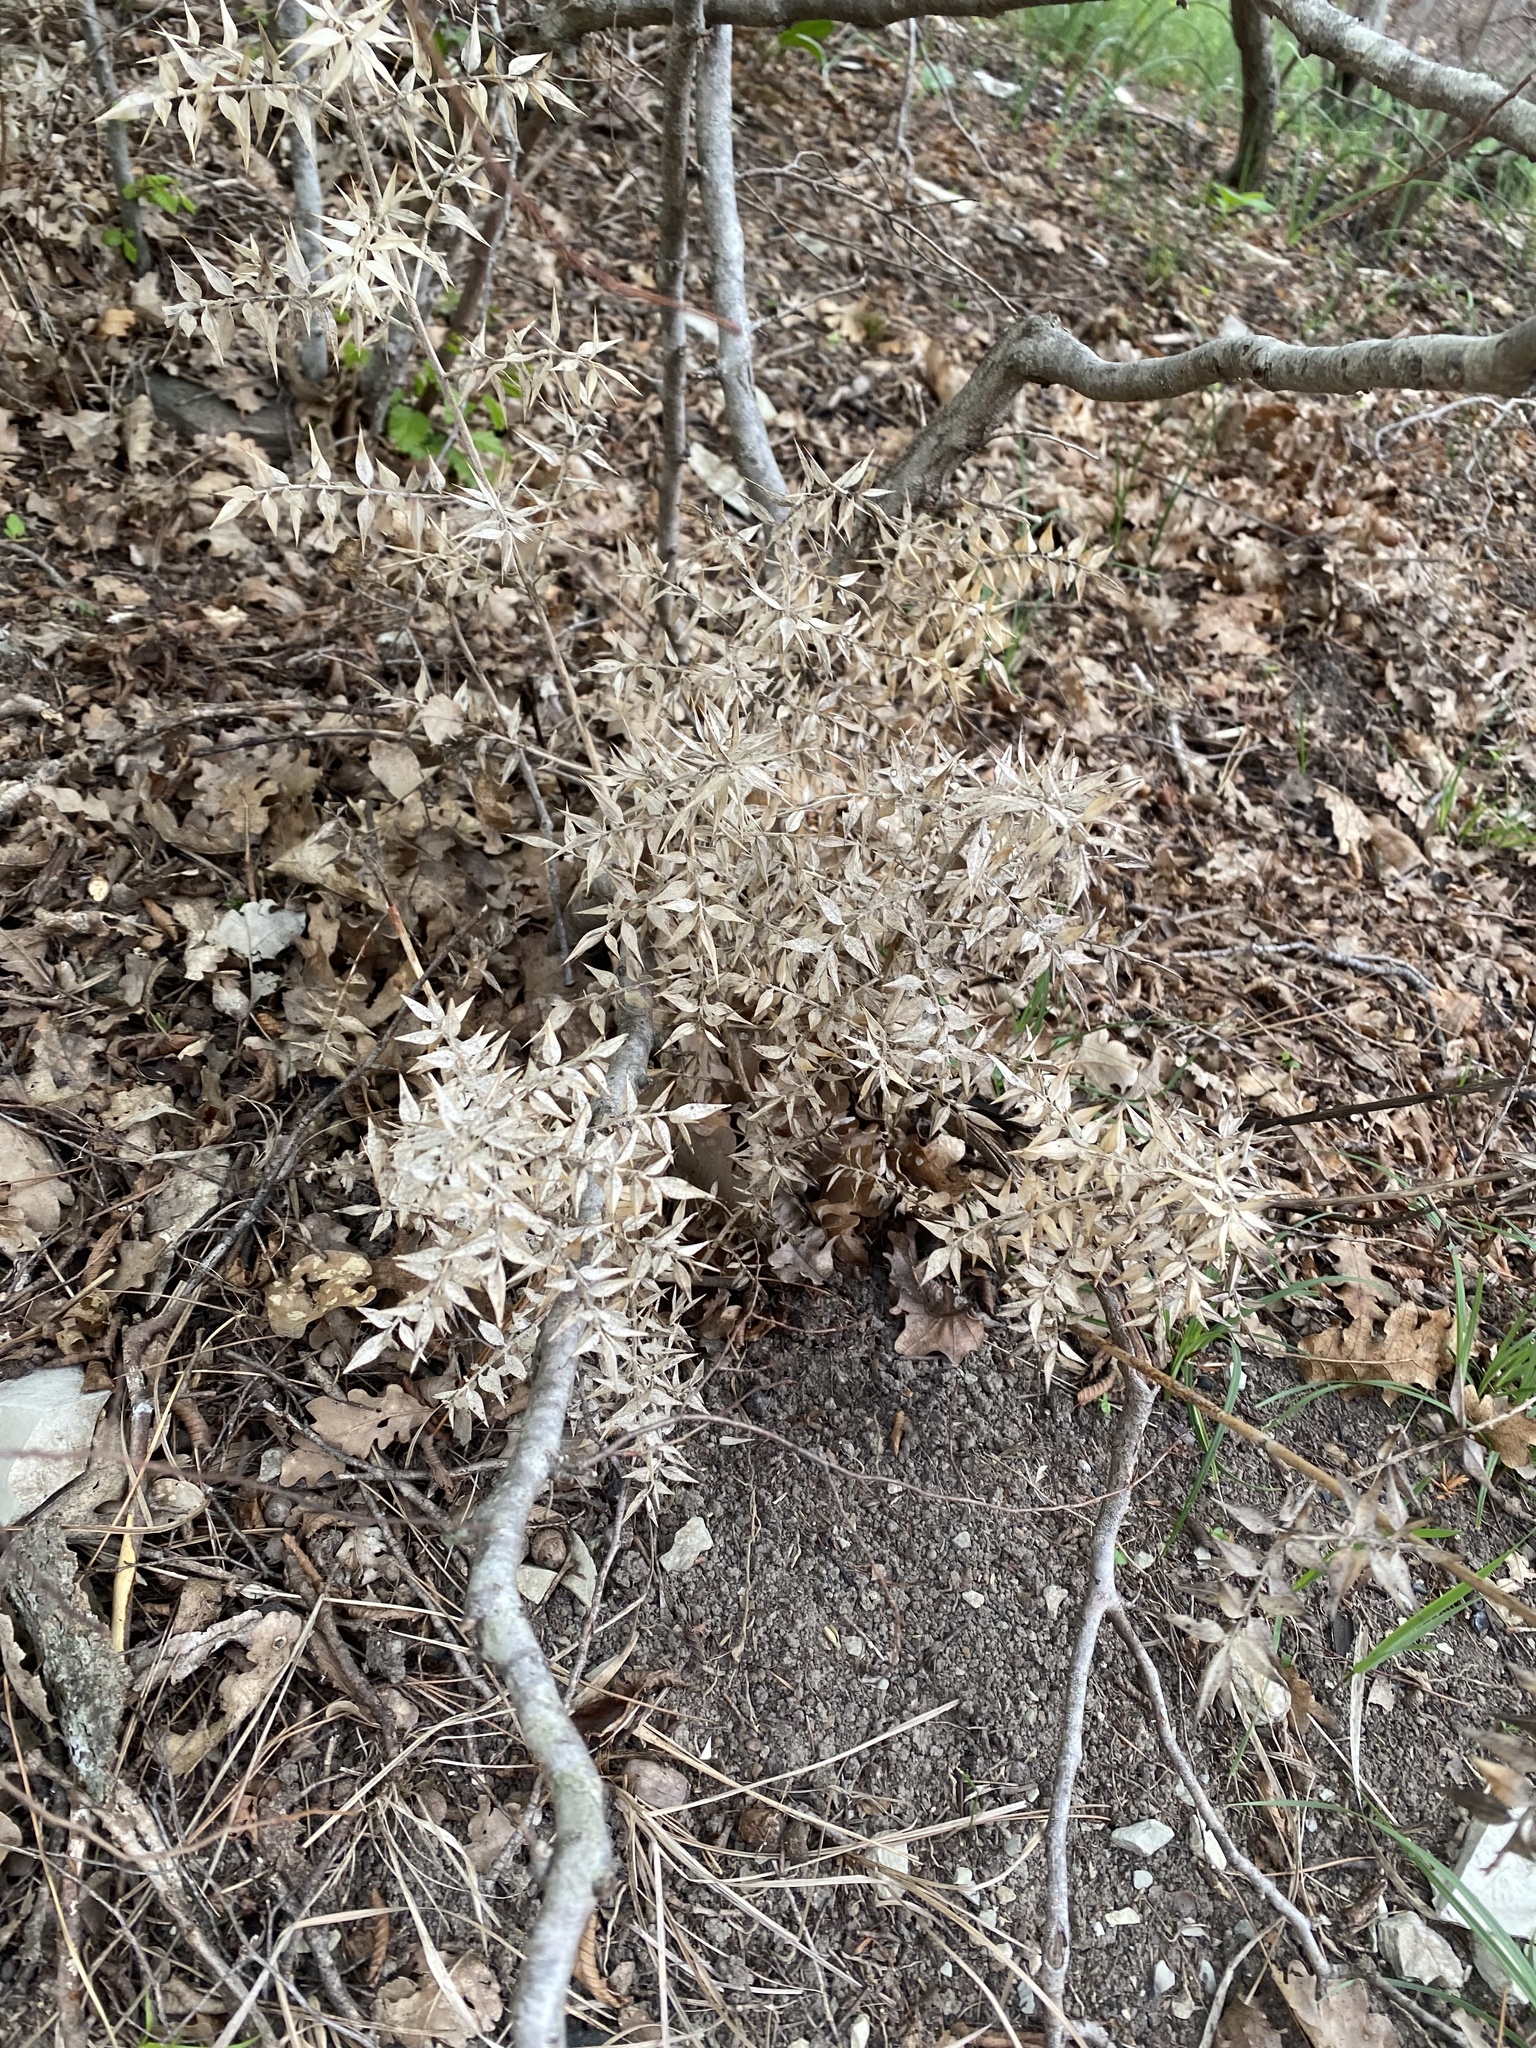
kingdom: Plantae
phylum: Tracheophyta
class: Liliopsida
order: Asparagales
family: Asparagaceae
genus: Ruscus
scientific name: Ruscus aculeatus
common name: Butcher's-broom
